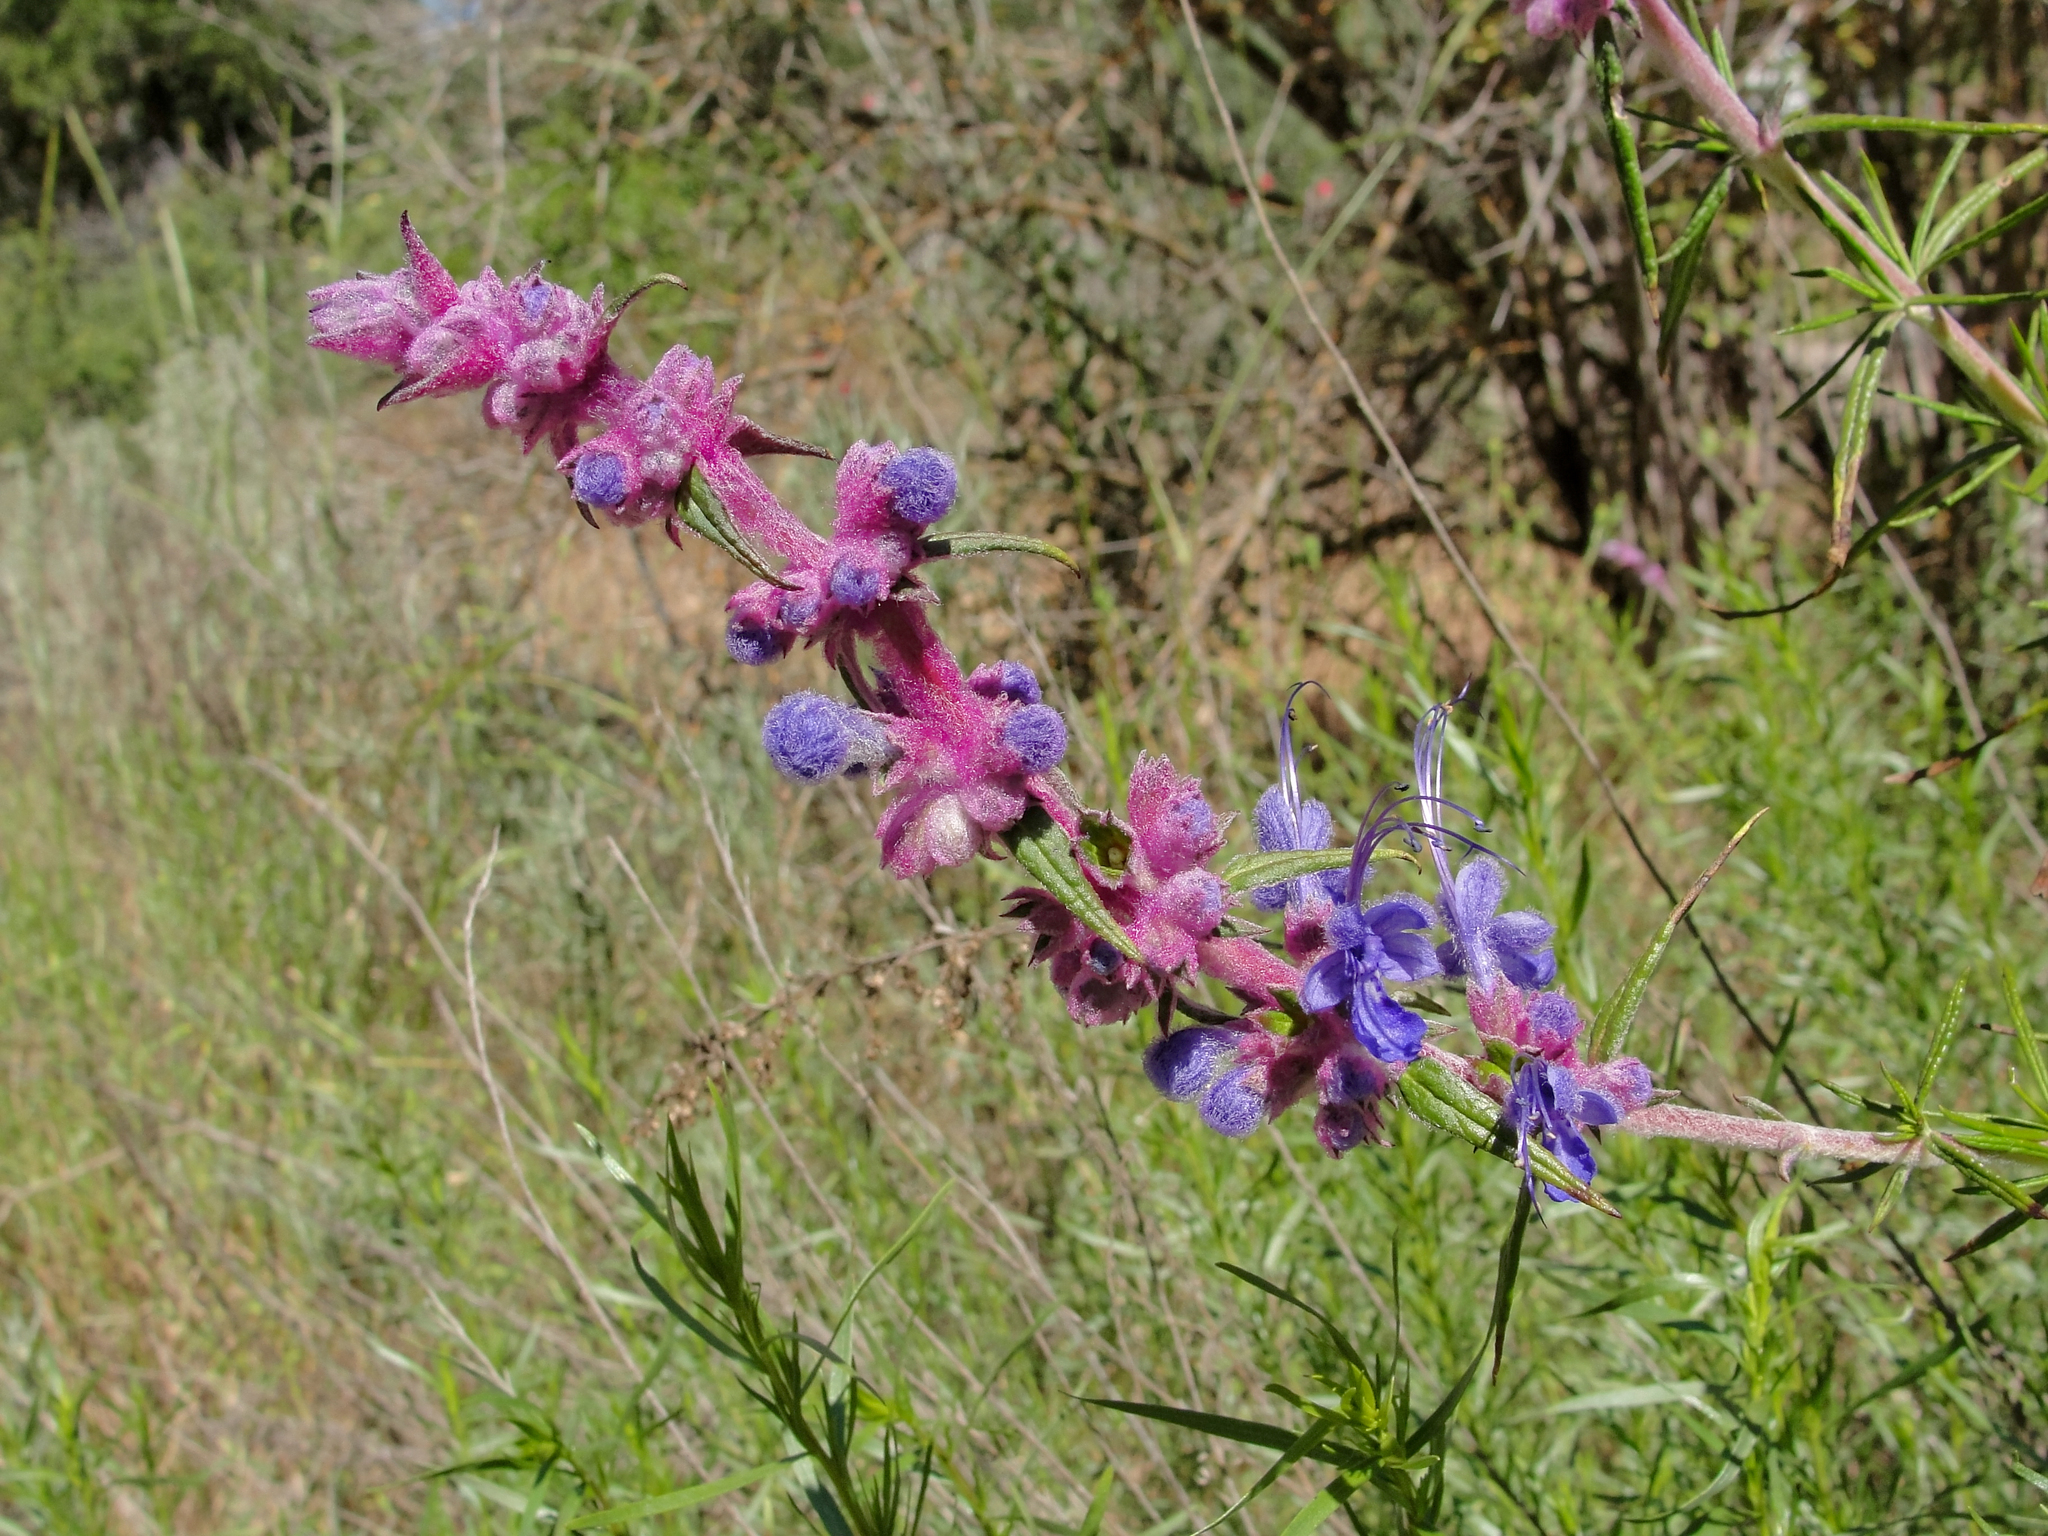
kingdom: Plantae
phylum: Tracheophyta
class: Magnoliopsida
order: Lamiales
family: Lamiaceae
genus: Trichostema
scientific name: Trichostema lanatum
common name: Woolly bluecurls
